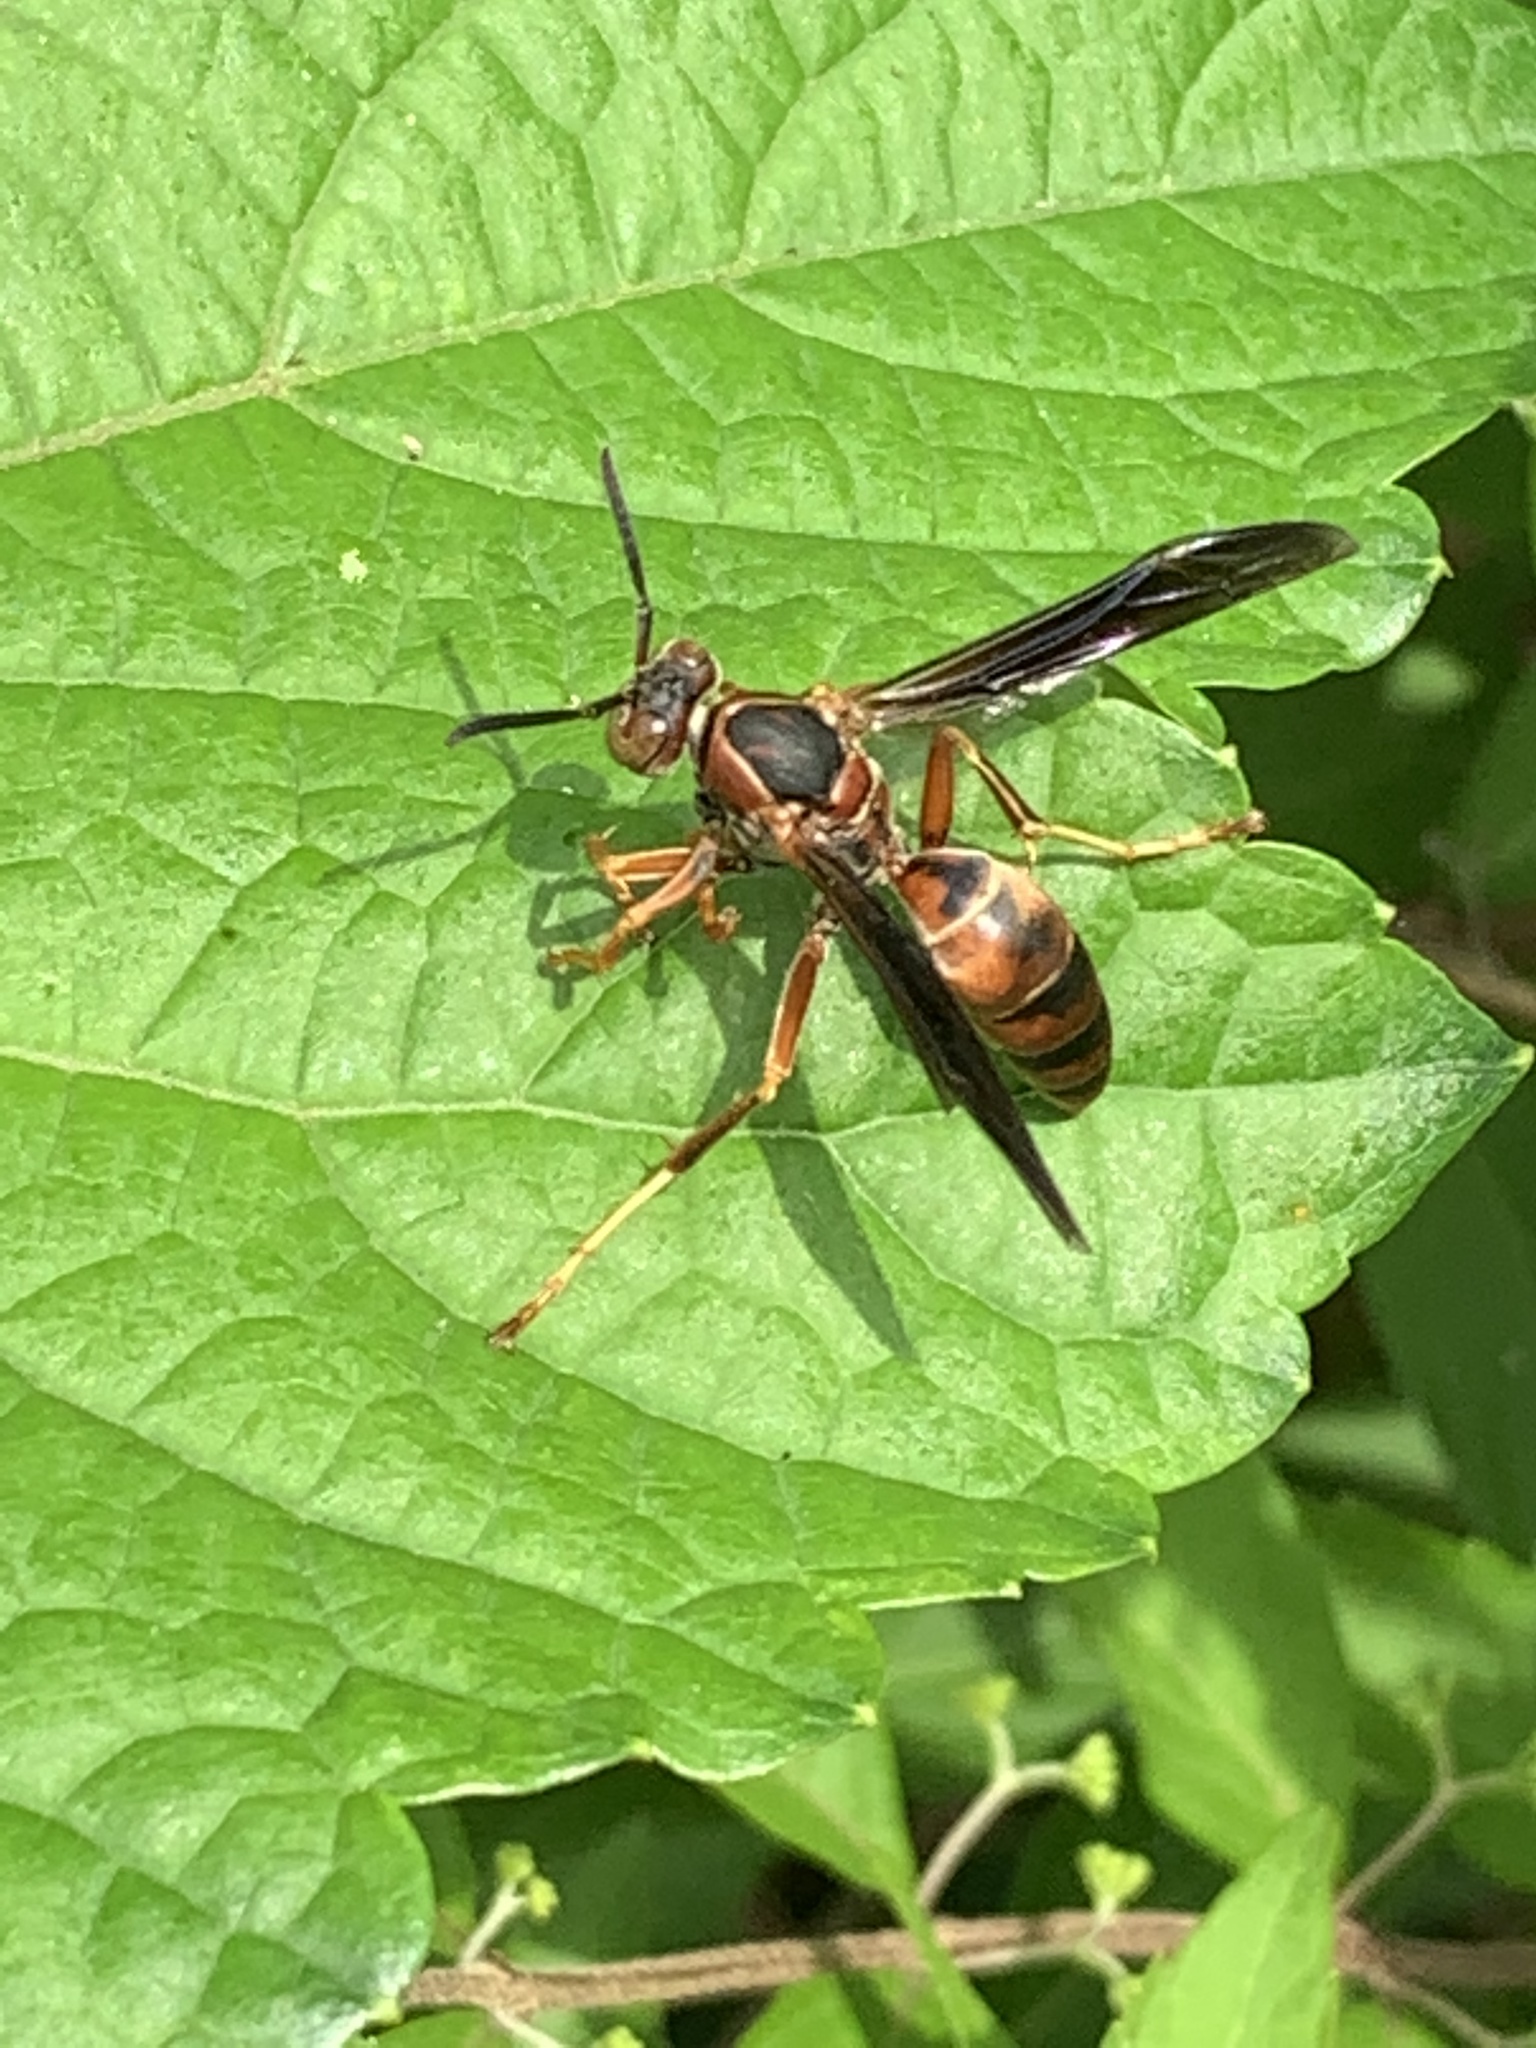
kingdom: Animalia
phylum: Arthropoda
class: Insecta
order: Hymenoptera
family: Eumenidae
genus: Polistes
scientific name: Polistes fuscatus
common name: Dark paper wasp
